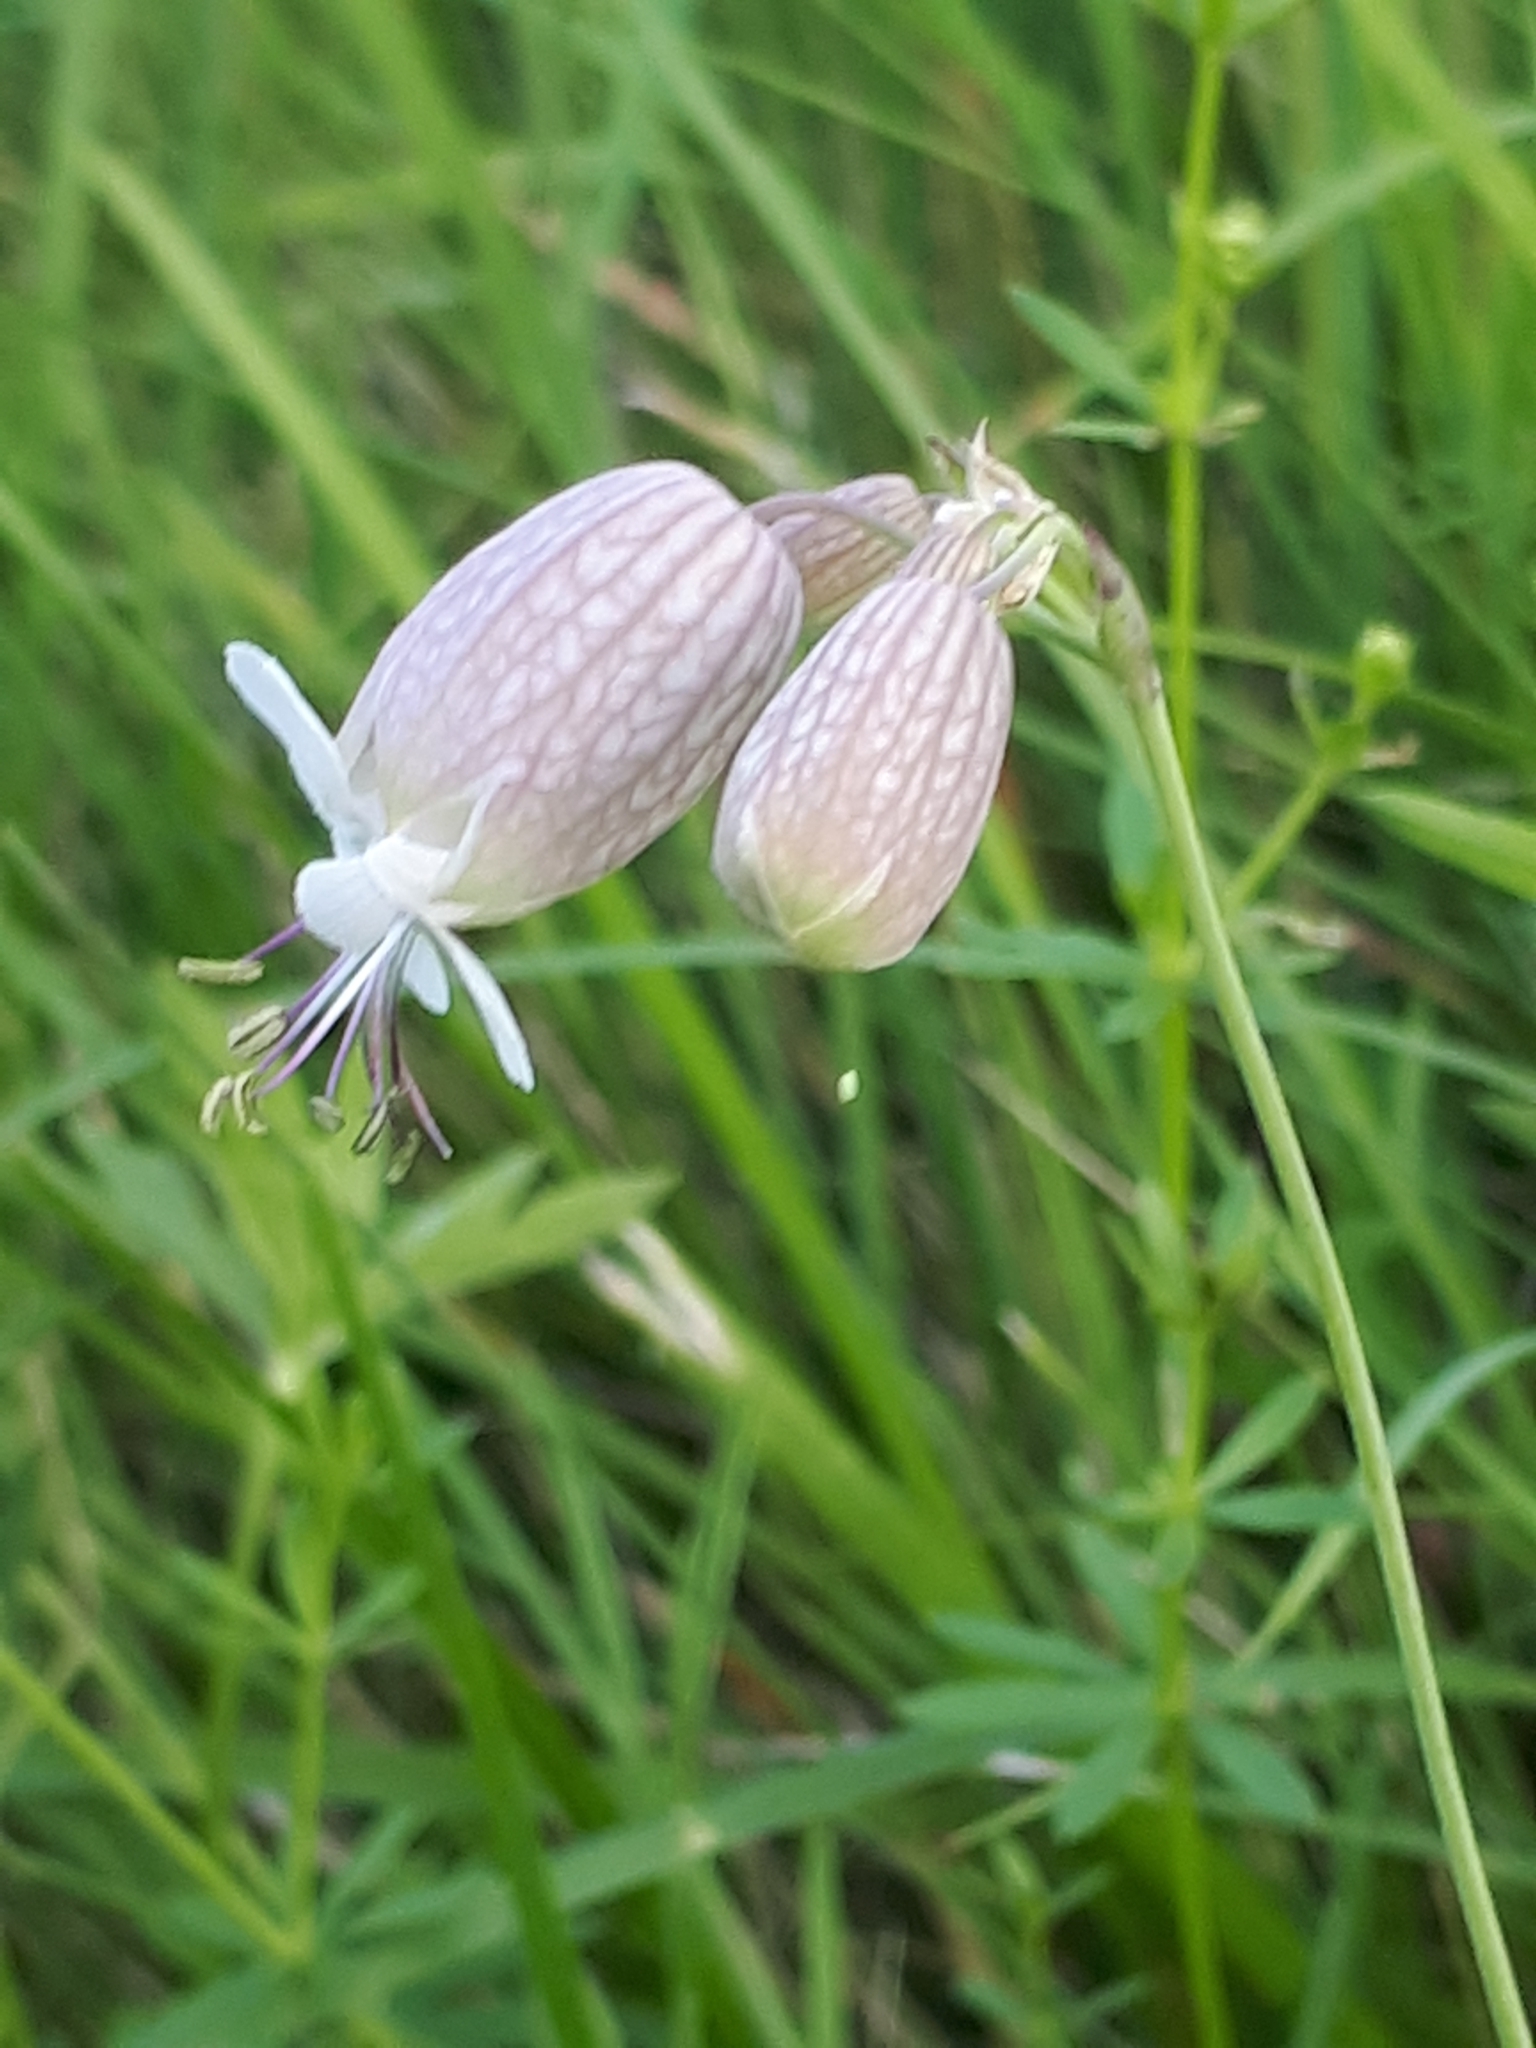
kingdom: Plantae
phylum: Tracheophyta
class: Magnoliopsida
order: Caryophyllales
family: Caryophyllaceae
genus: Silene
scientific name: Silene vulgaris
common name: Bladder campion
